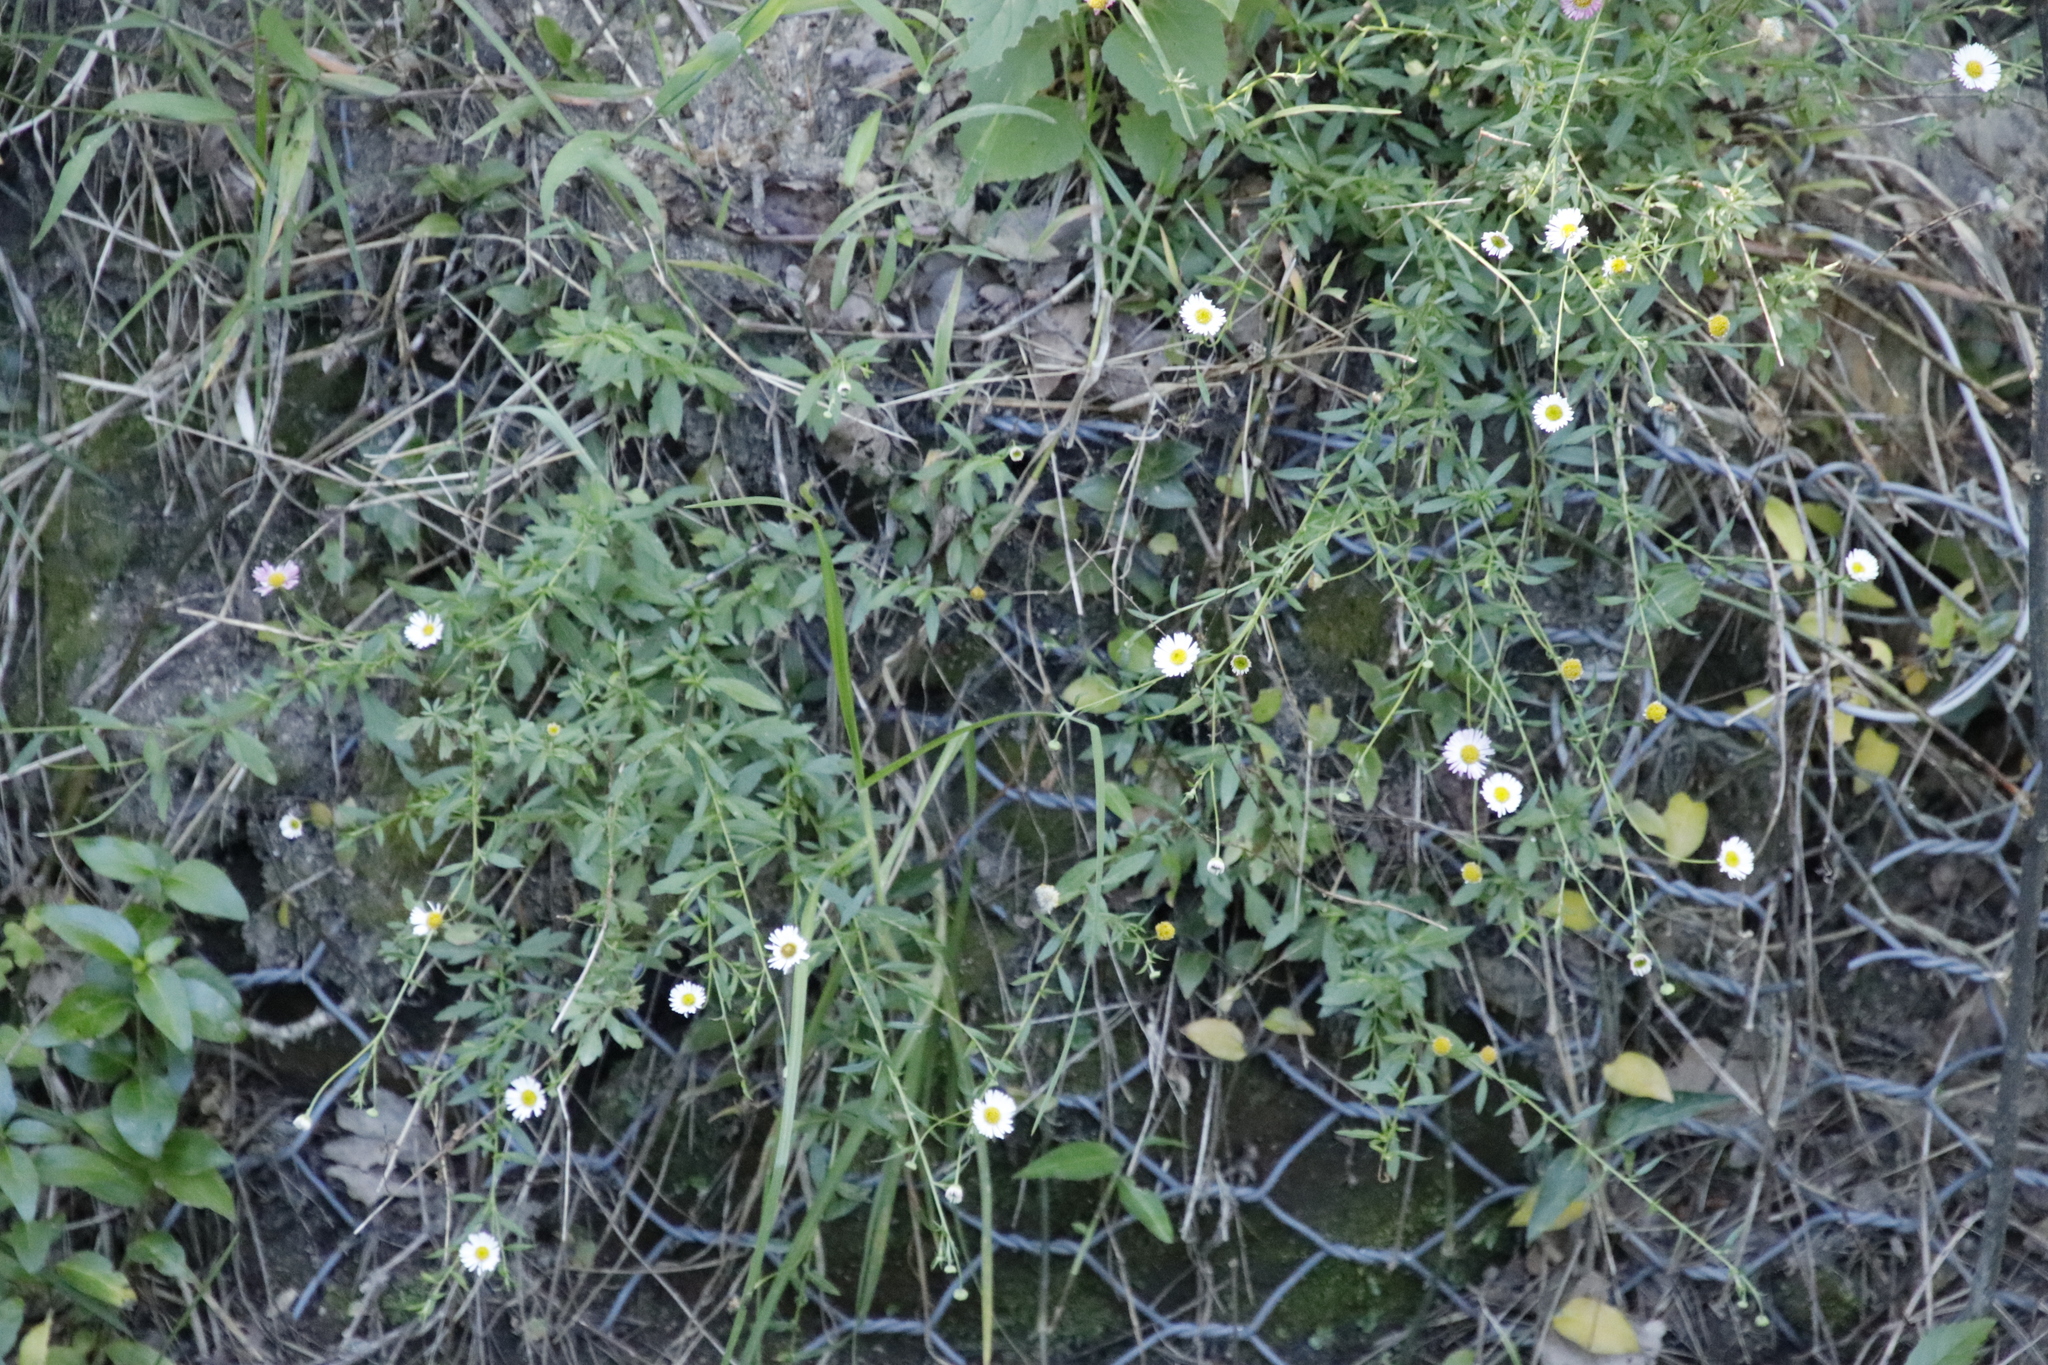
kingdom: Plantae
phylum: Tracheophyta
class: Magnoliopsida
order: Asterales
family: Asteraceae
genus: Erigeron
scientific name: Erigeron karvinskianus
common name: Mexican fleabane
